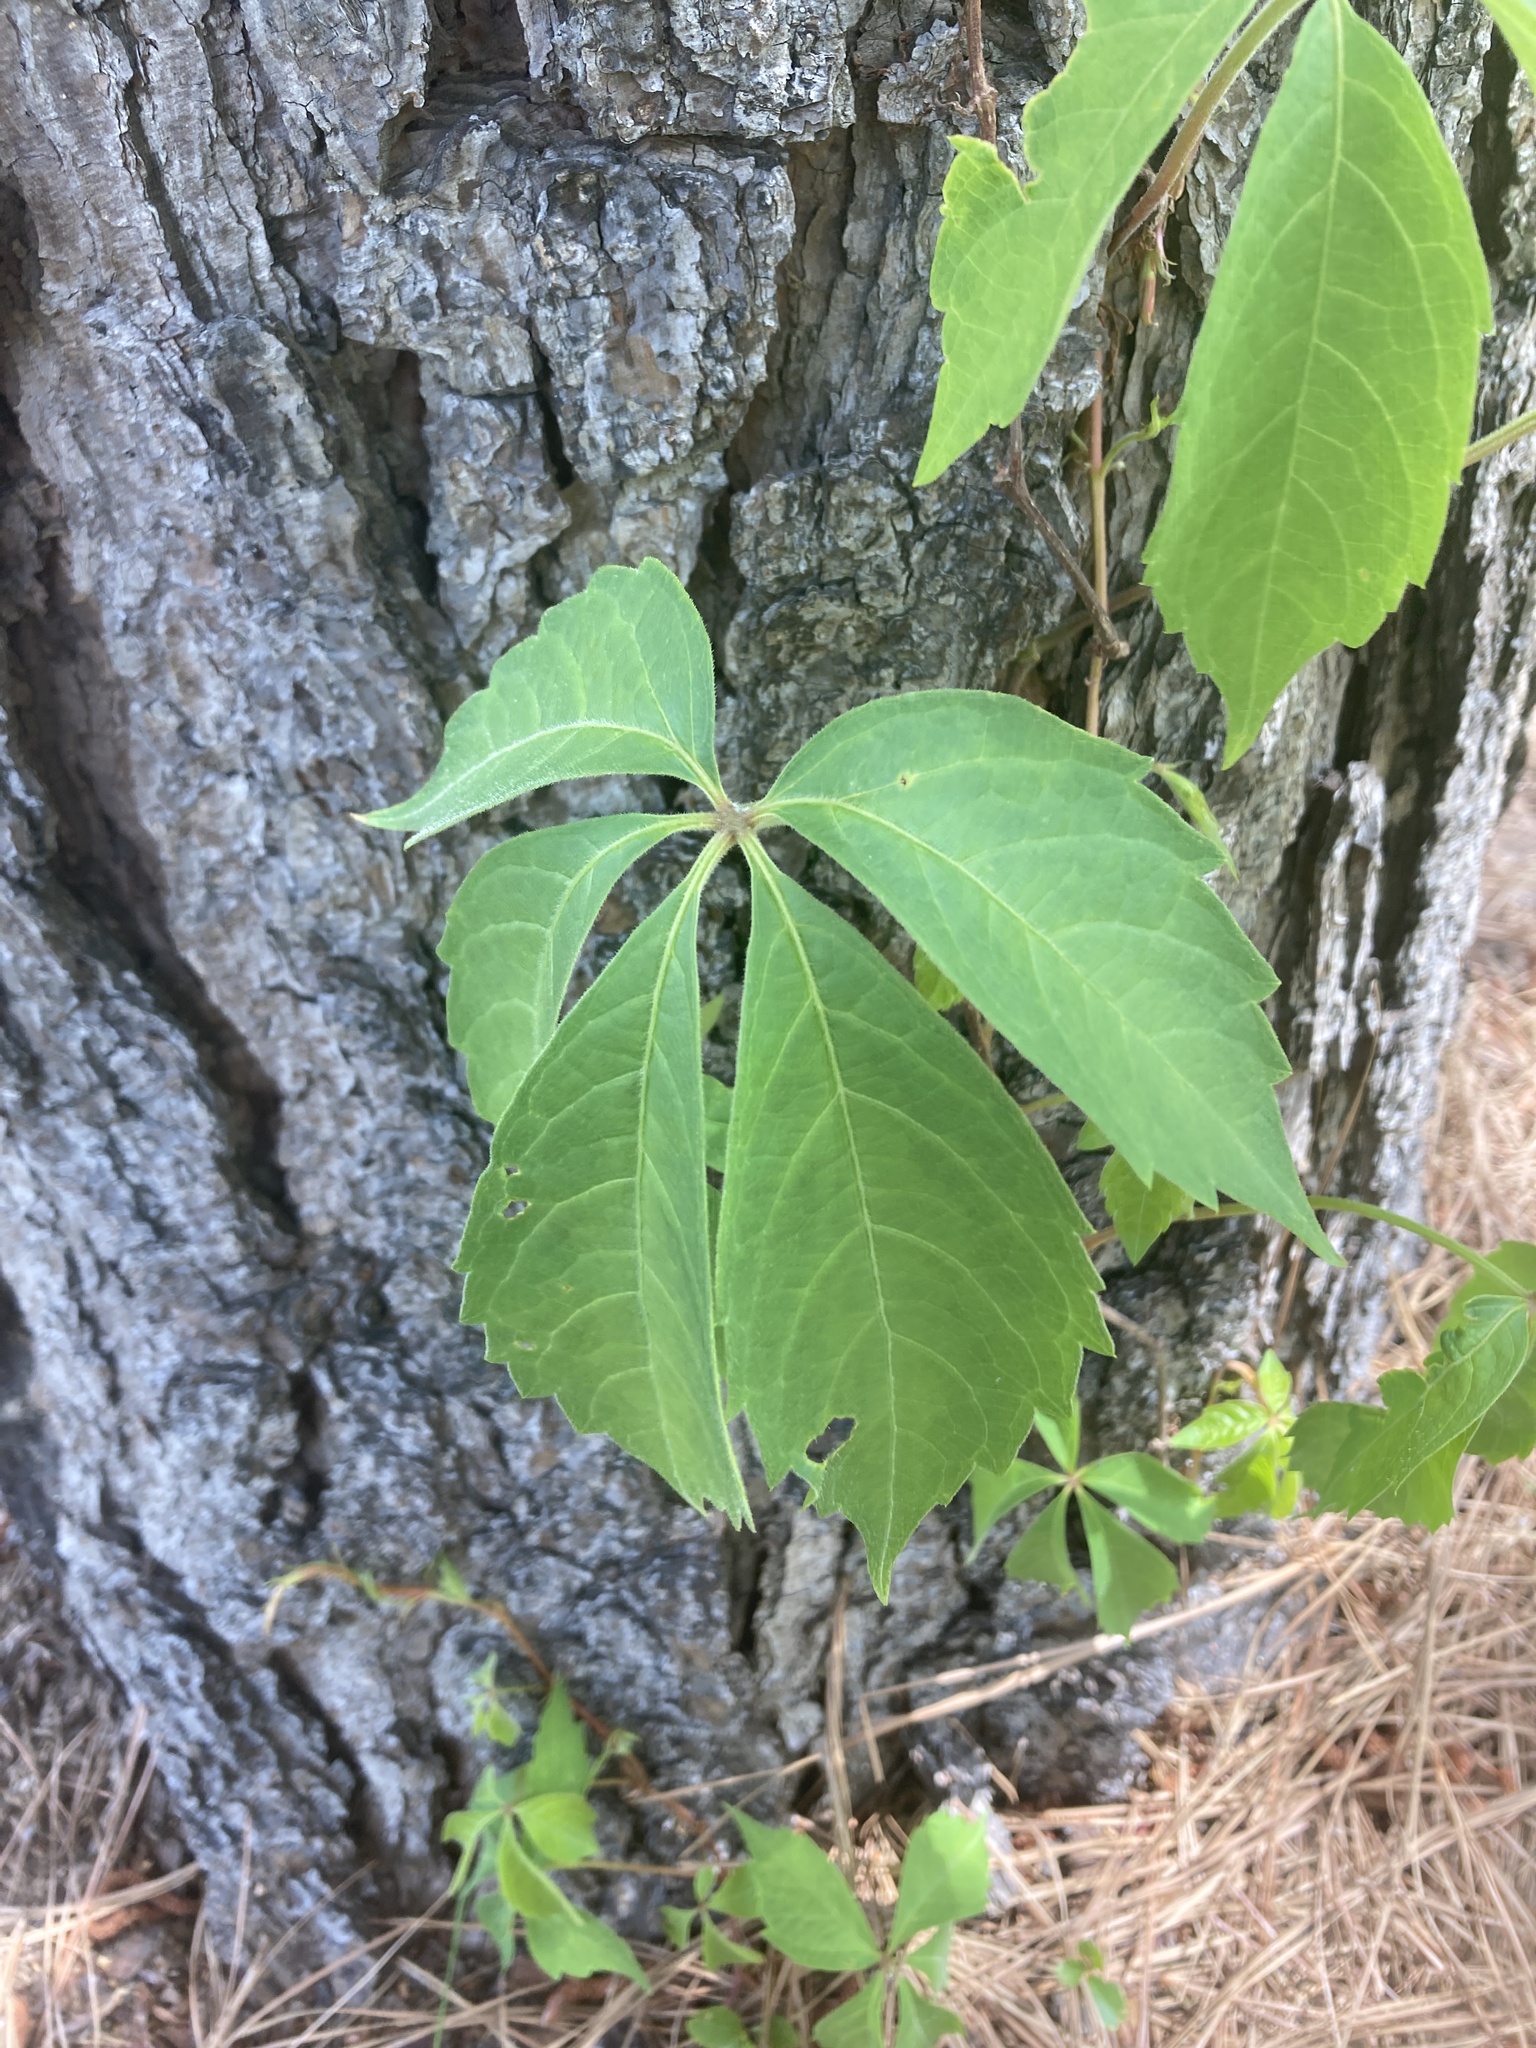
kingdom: Plantae
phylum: Tracheophyta
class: Magnoliopsida
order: Vitales
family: Vitaceae
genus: Parthenocissus
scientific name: Parthenocissus quinquefolia
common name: Virginia-creeper
